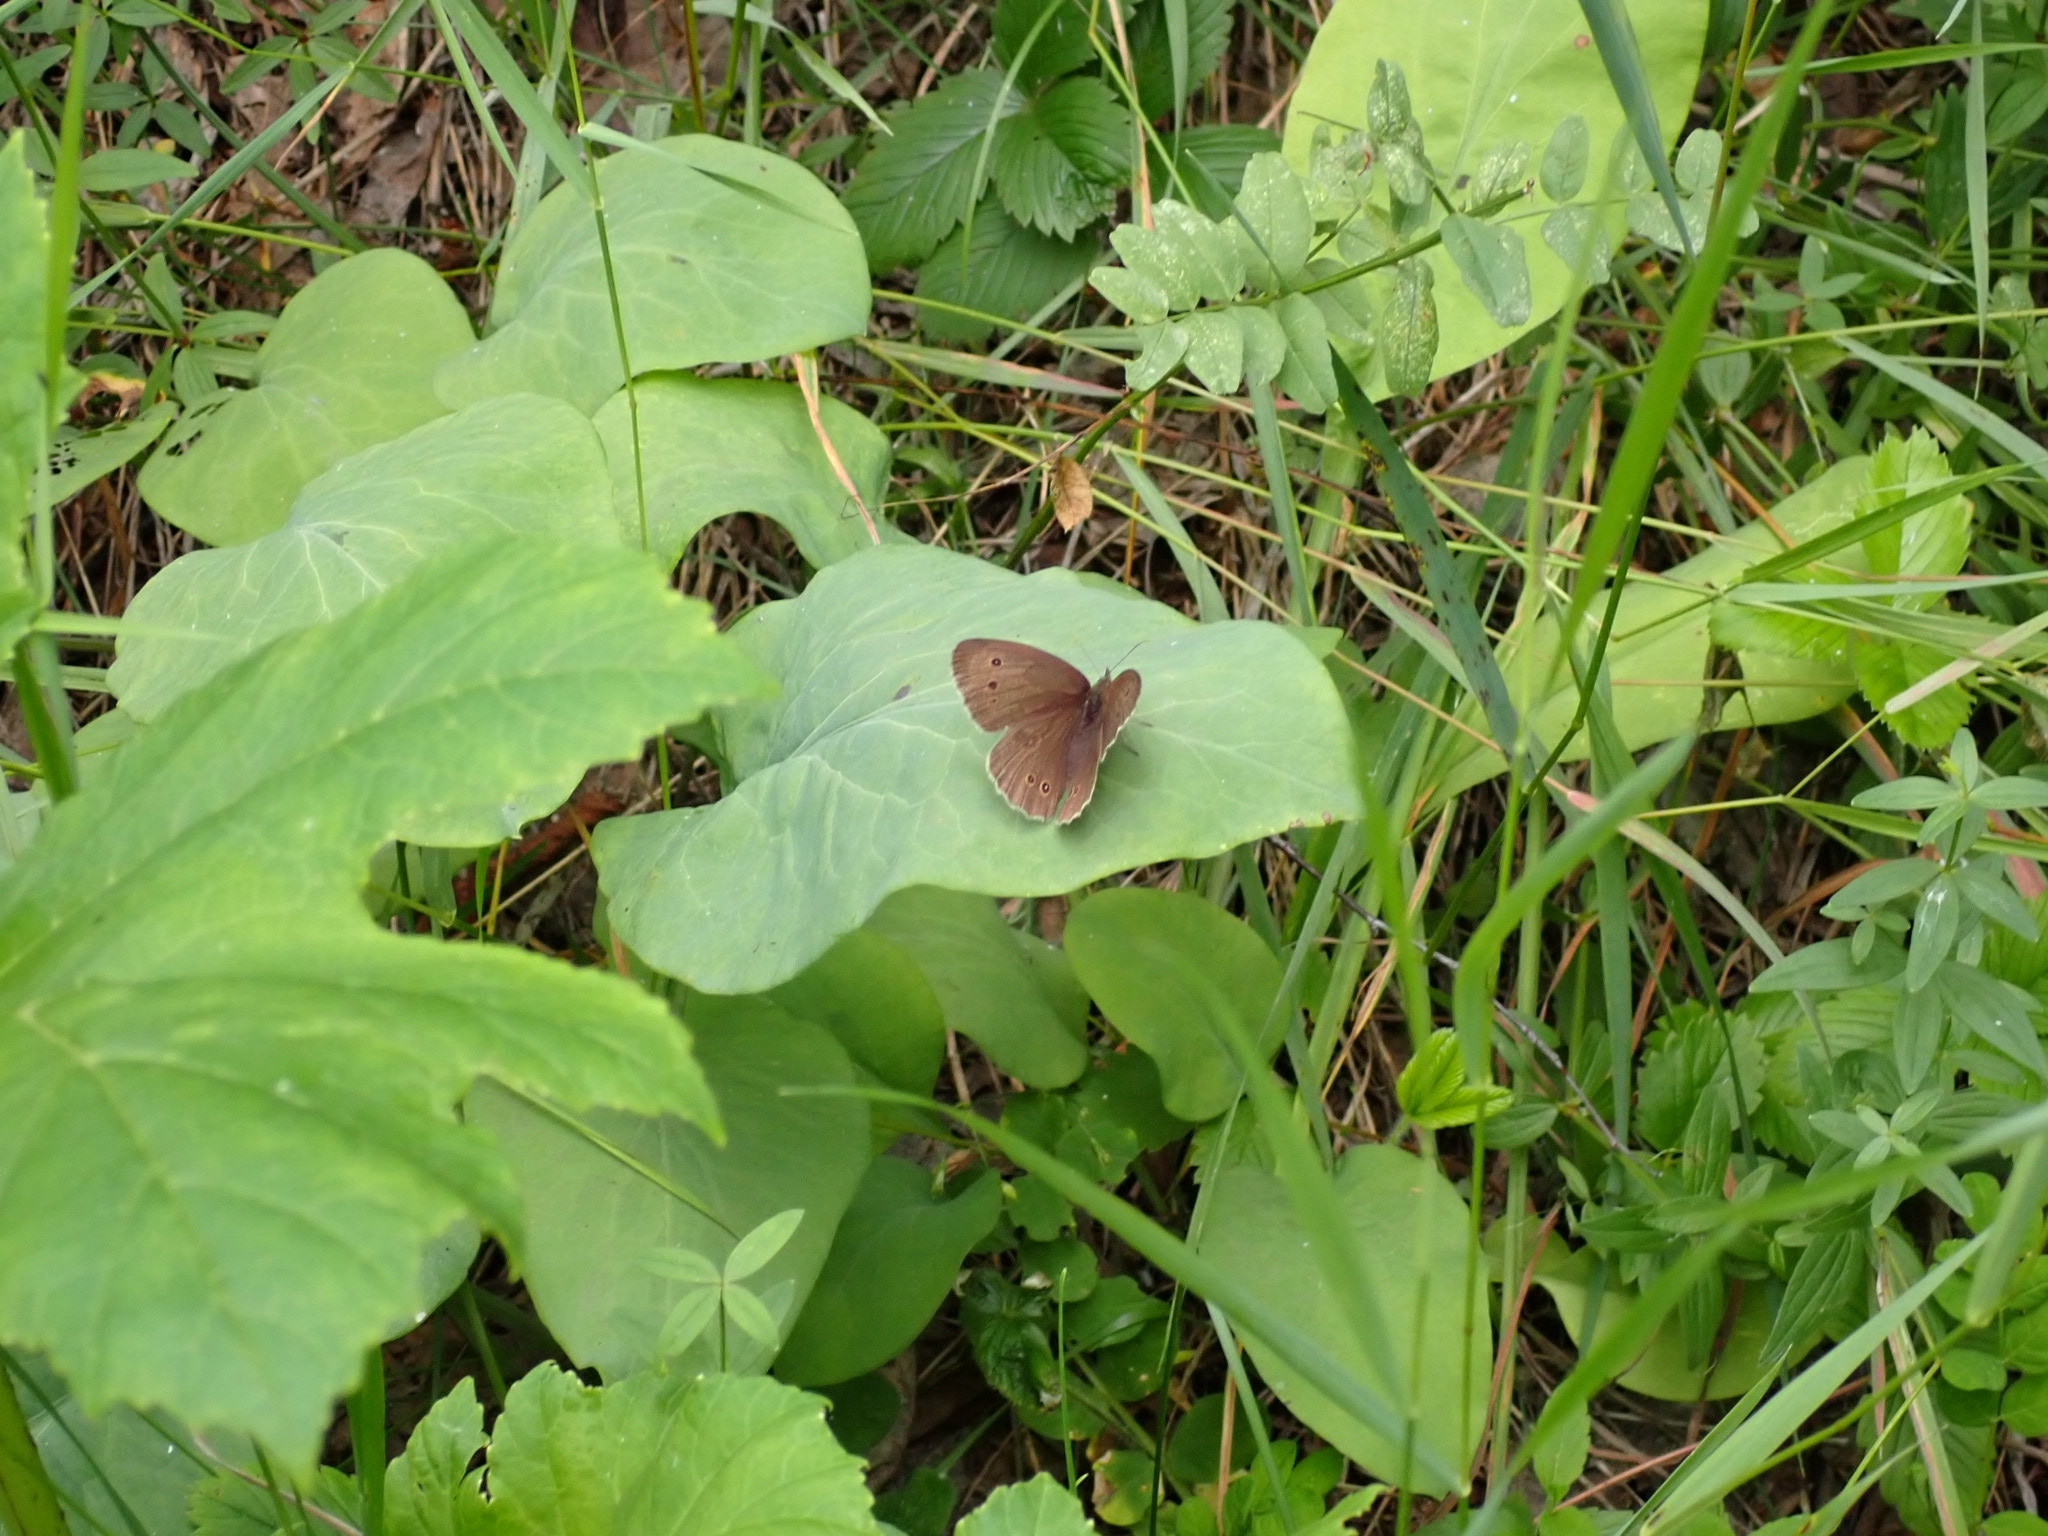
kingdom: Animalia
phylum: Arthropoda
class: Insecta
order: Lepidoptera
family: Nymphalidae
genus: Aphantopus
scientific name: Aphantopus hyperantus
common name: Ringlet
